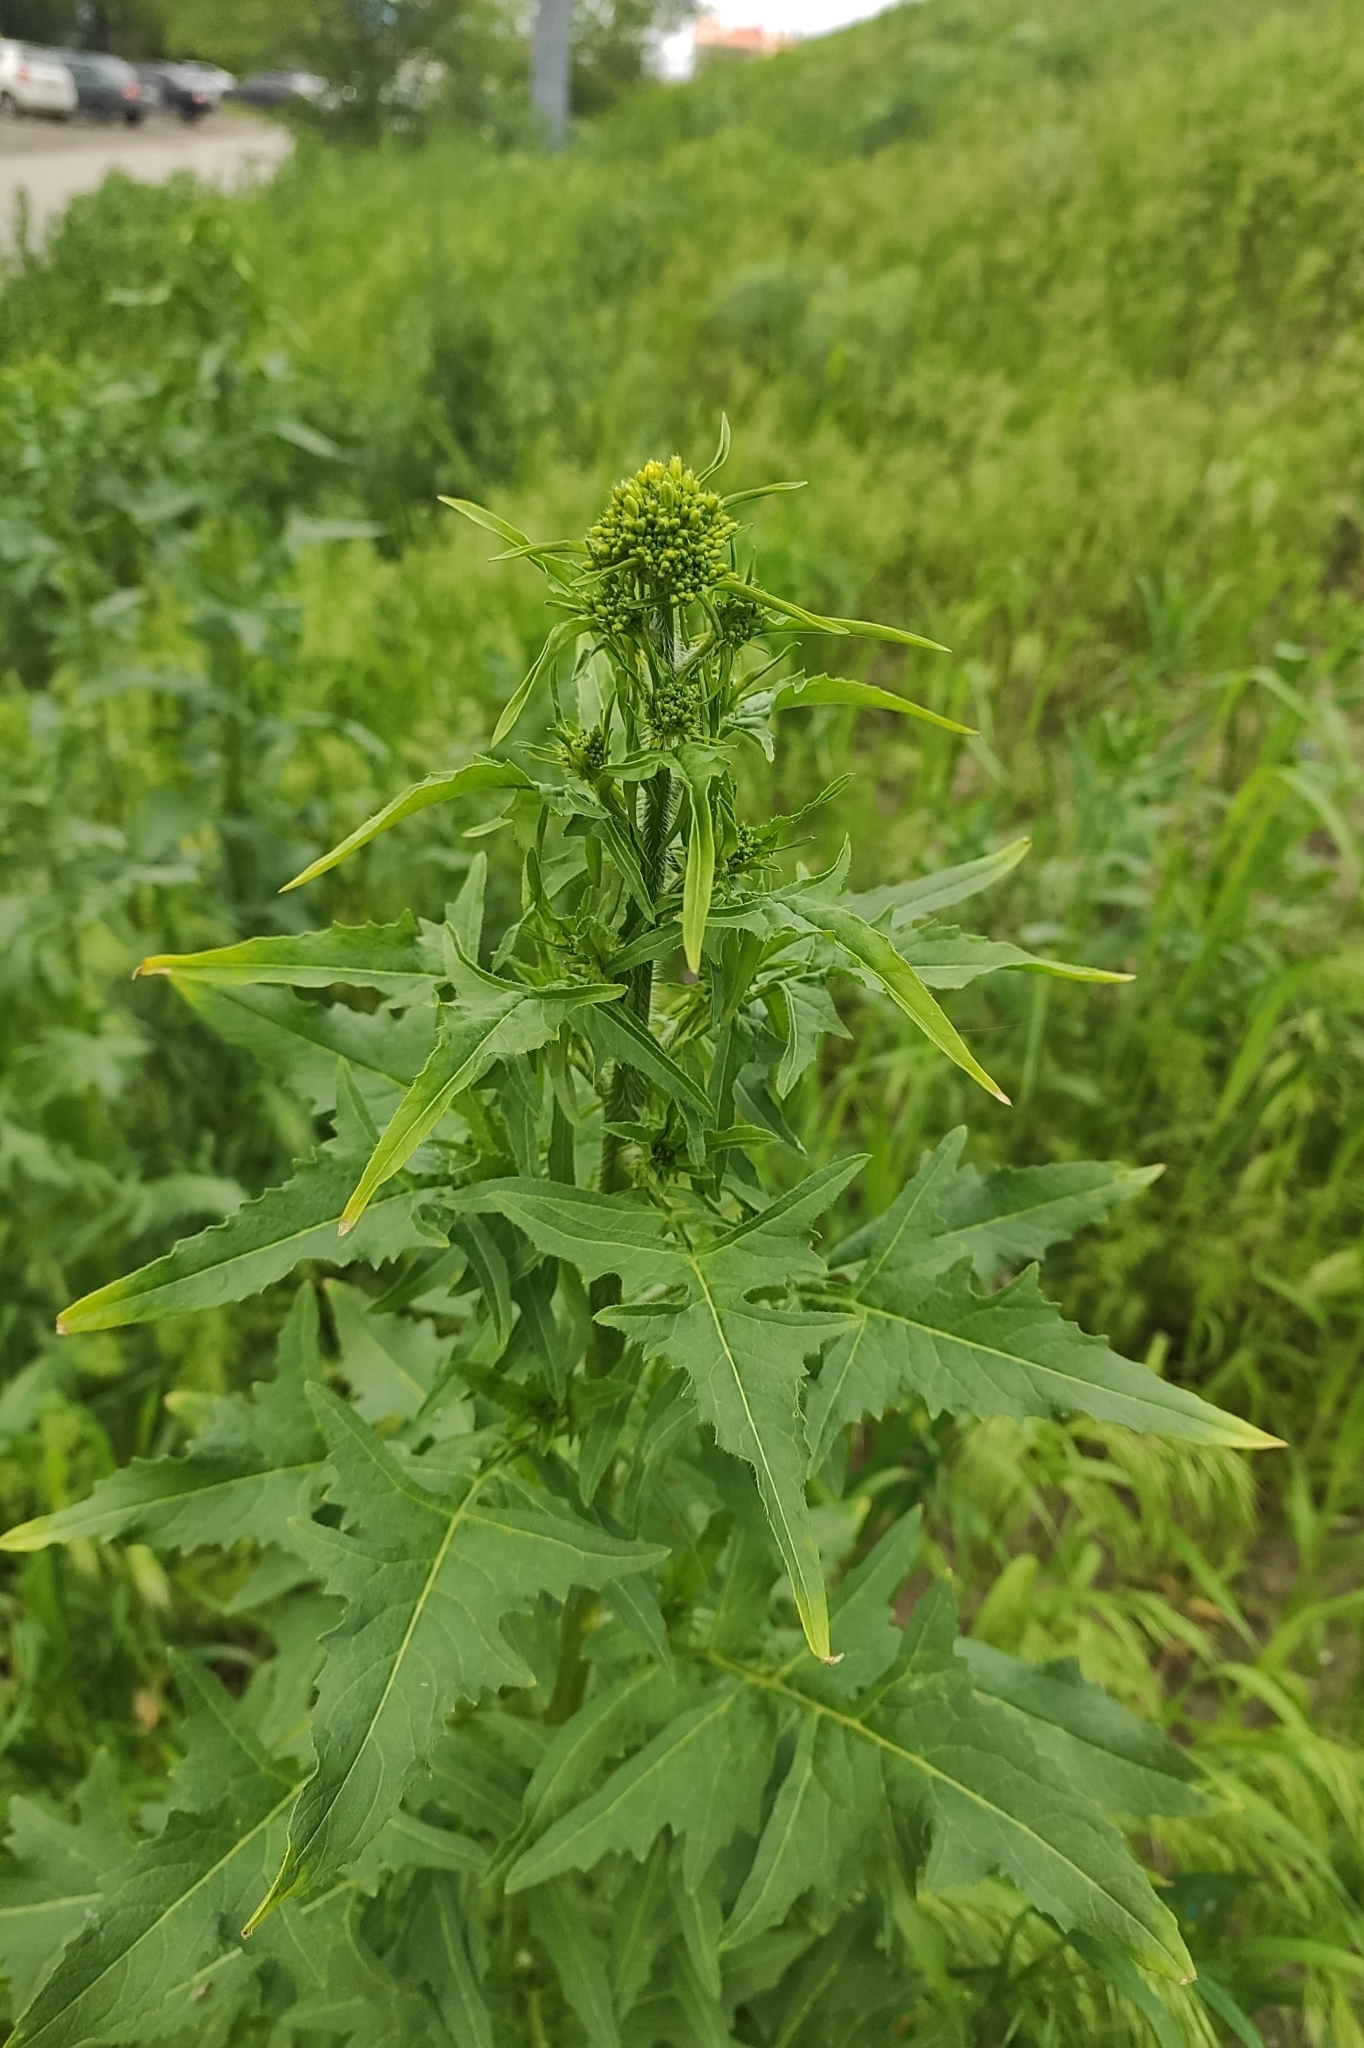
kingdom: Plantae
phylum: Tracheophyta
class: Magnoliopsida
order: Brassicales
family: Brassicaceae
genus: Sisymbrium
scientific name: Sisymbrium loeselii
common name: False london-rocket
